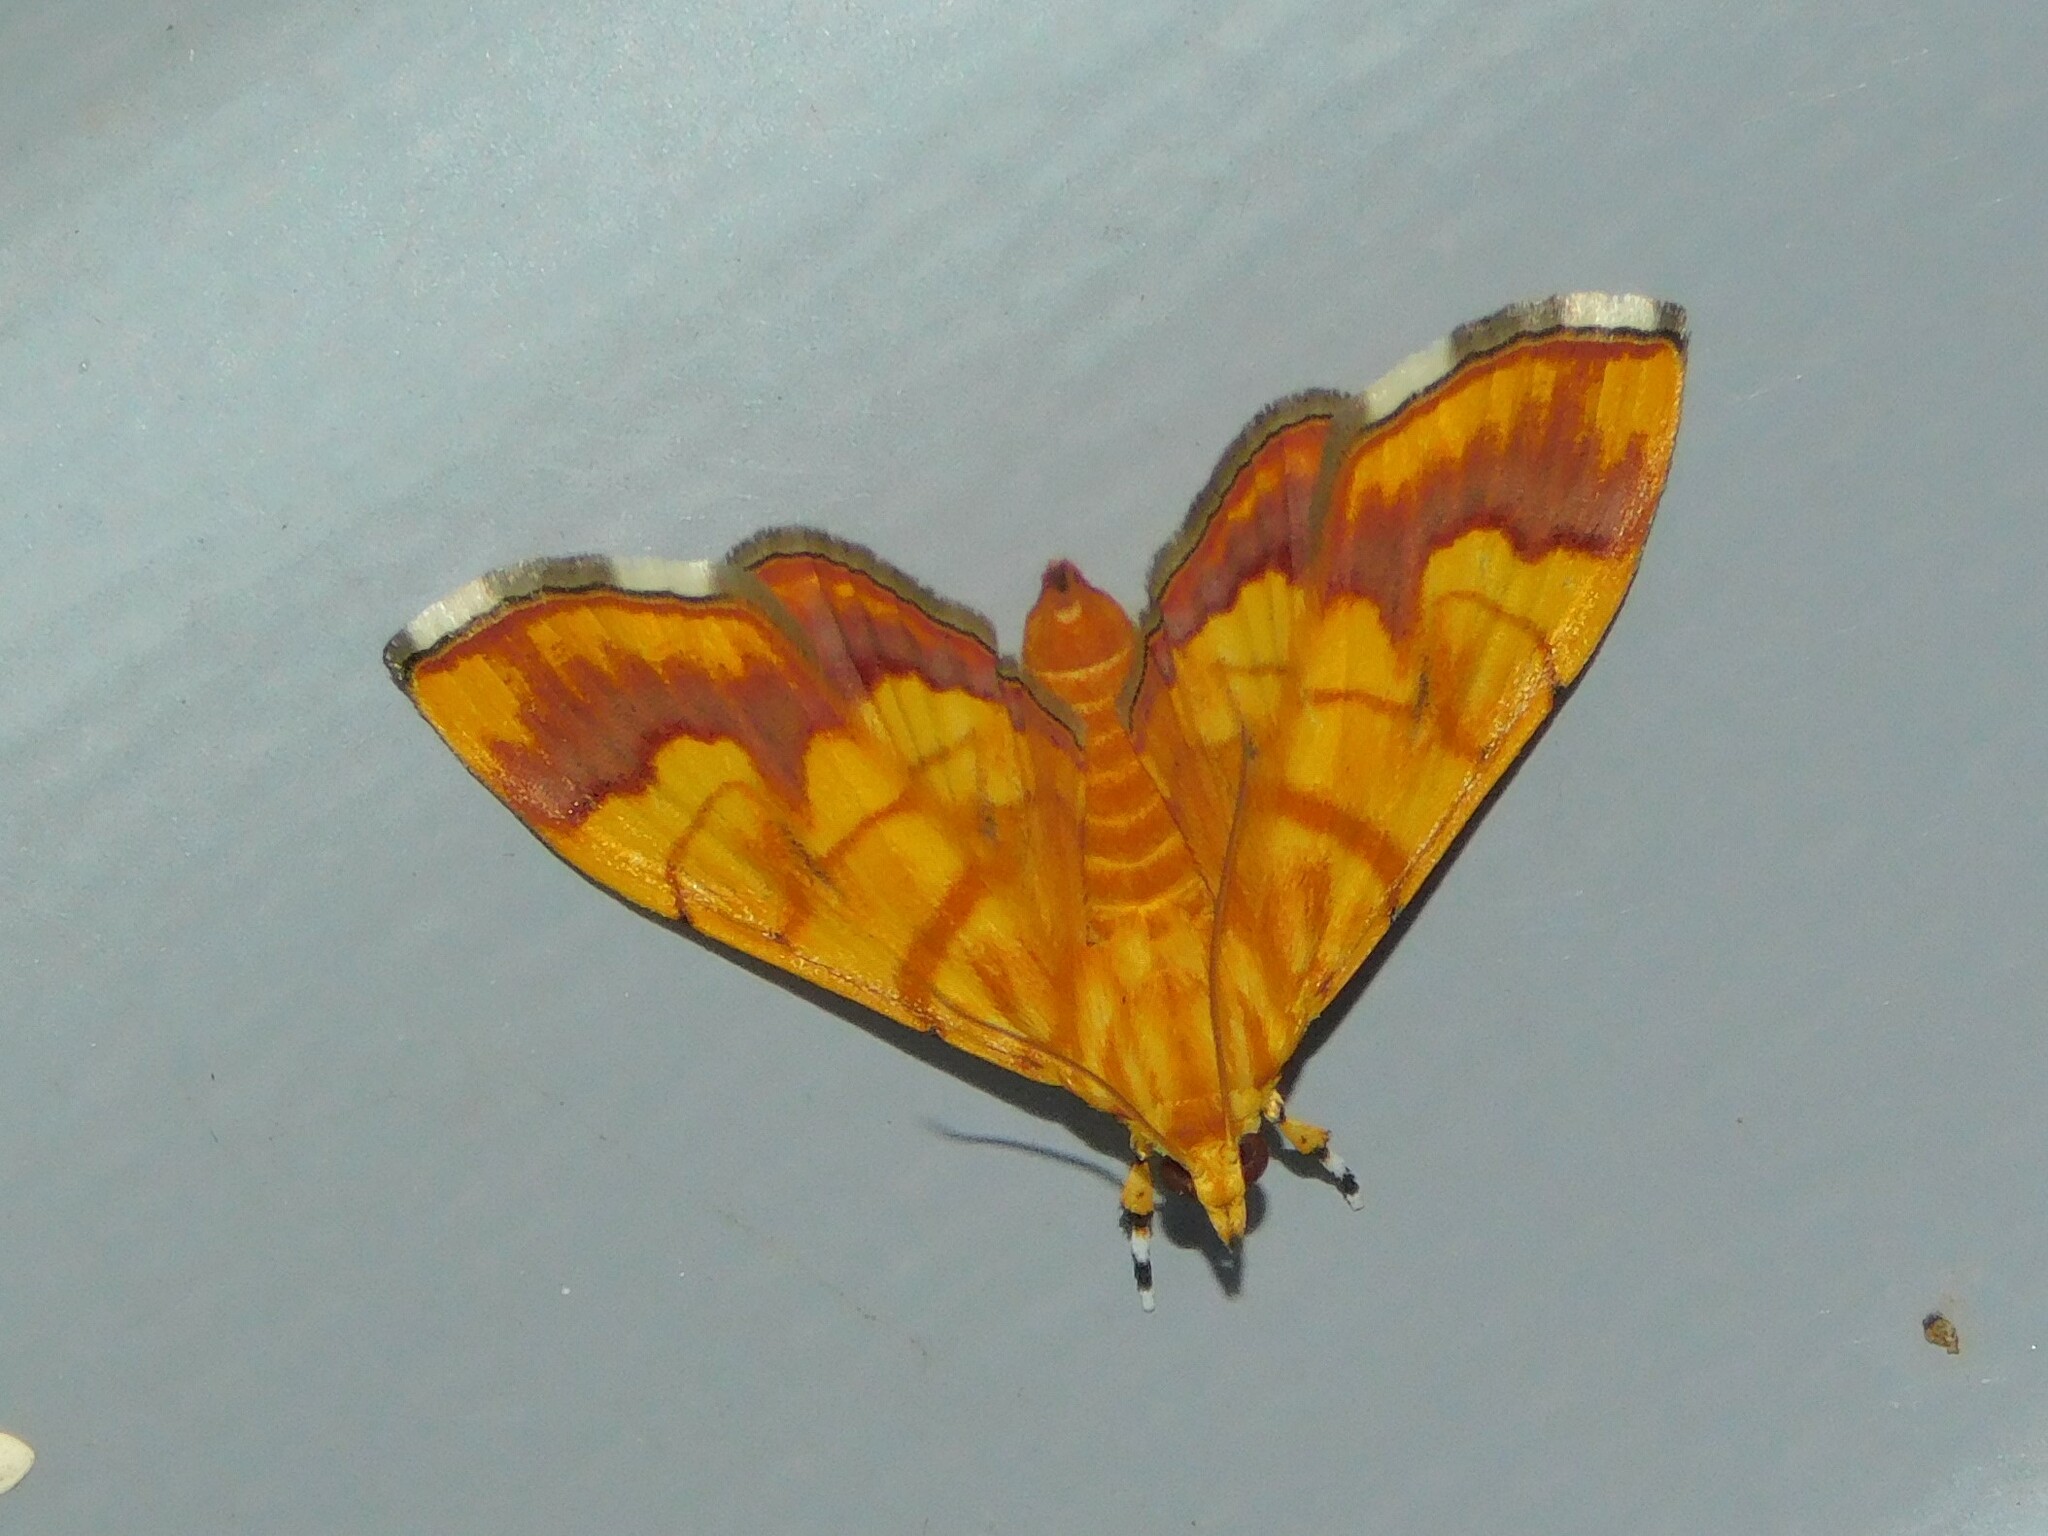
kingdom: Animalia
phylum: Arthropoda
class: Insecta
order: Lepidoptera
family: Crambidae
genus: Cryptosara
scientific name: Cryptosara caritalis
